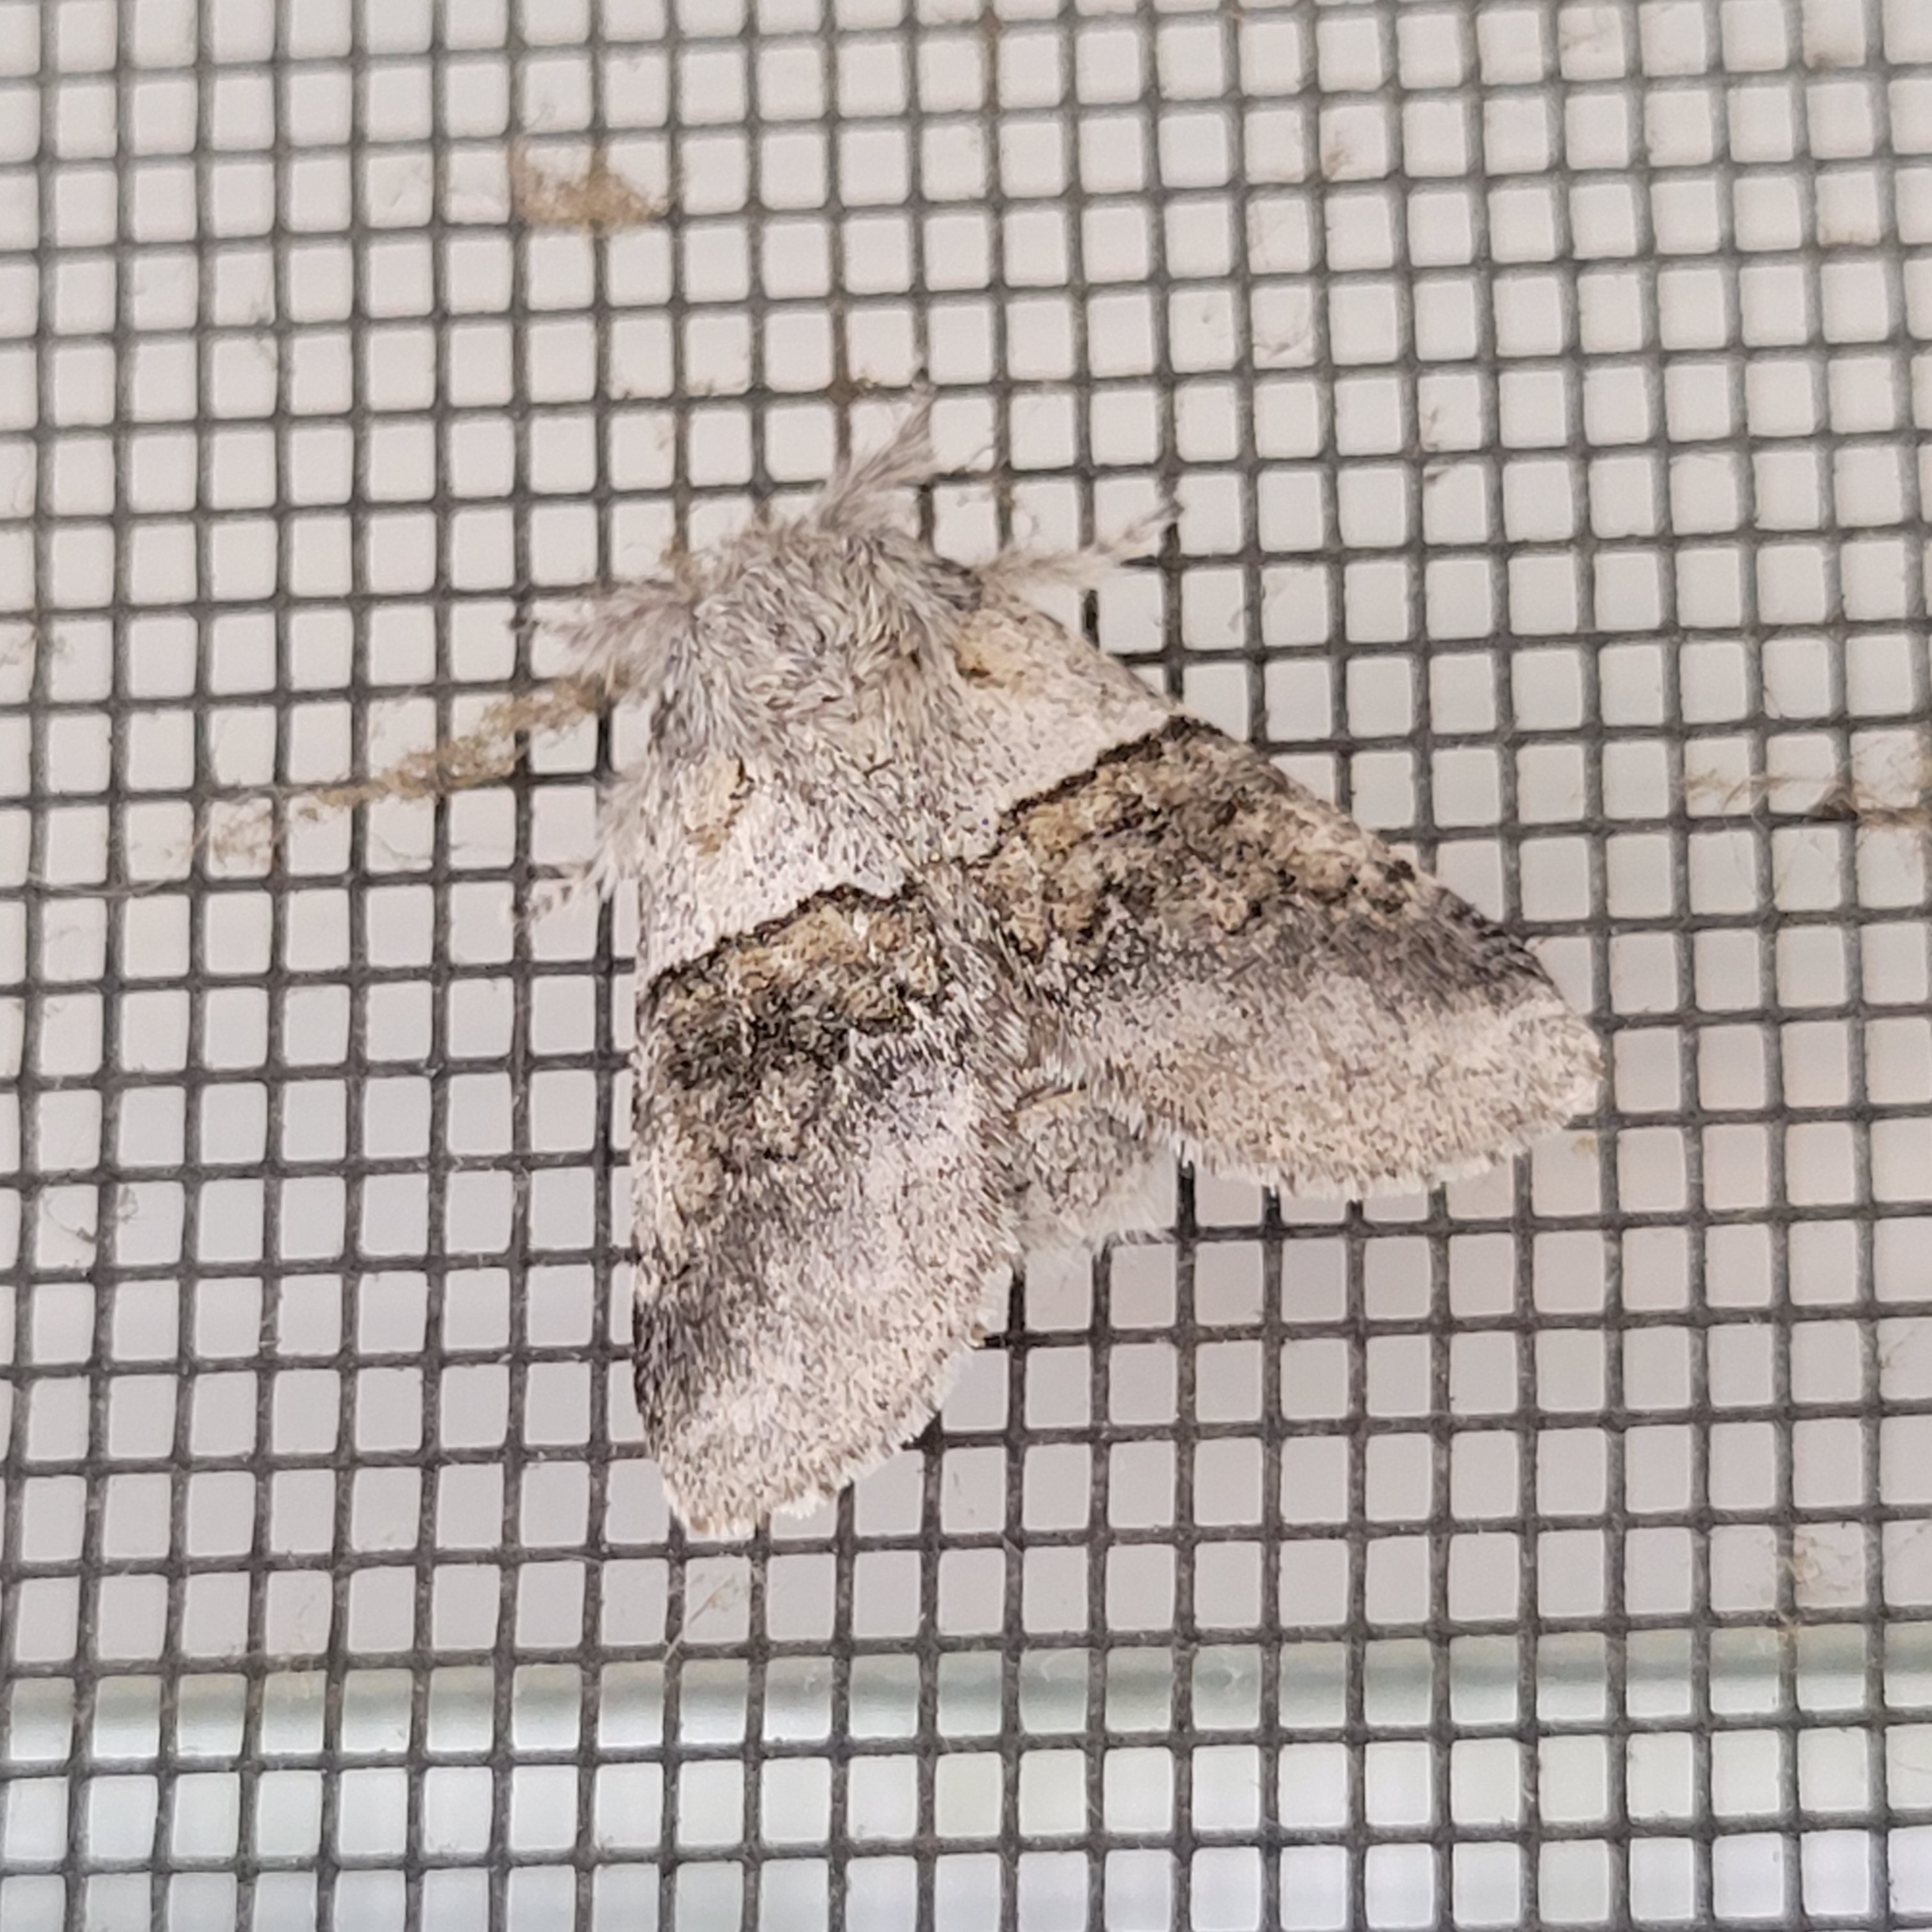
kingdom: Animalia
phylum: Arthropoda
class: Insecta
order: Lepidoptera
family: Notodontidae
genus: Gluphisia
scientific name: Gluphisia septentrionis
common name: Common gluphisia
